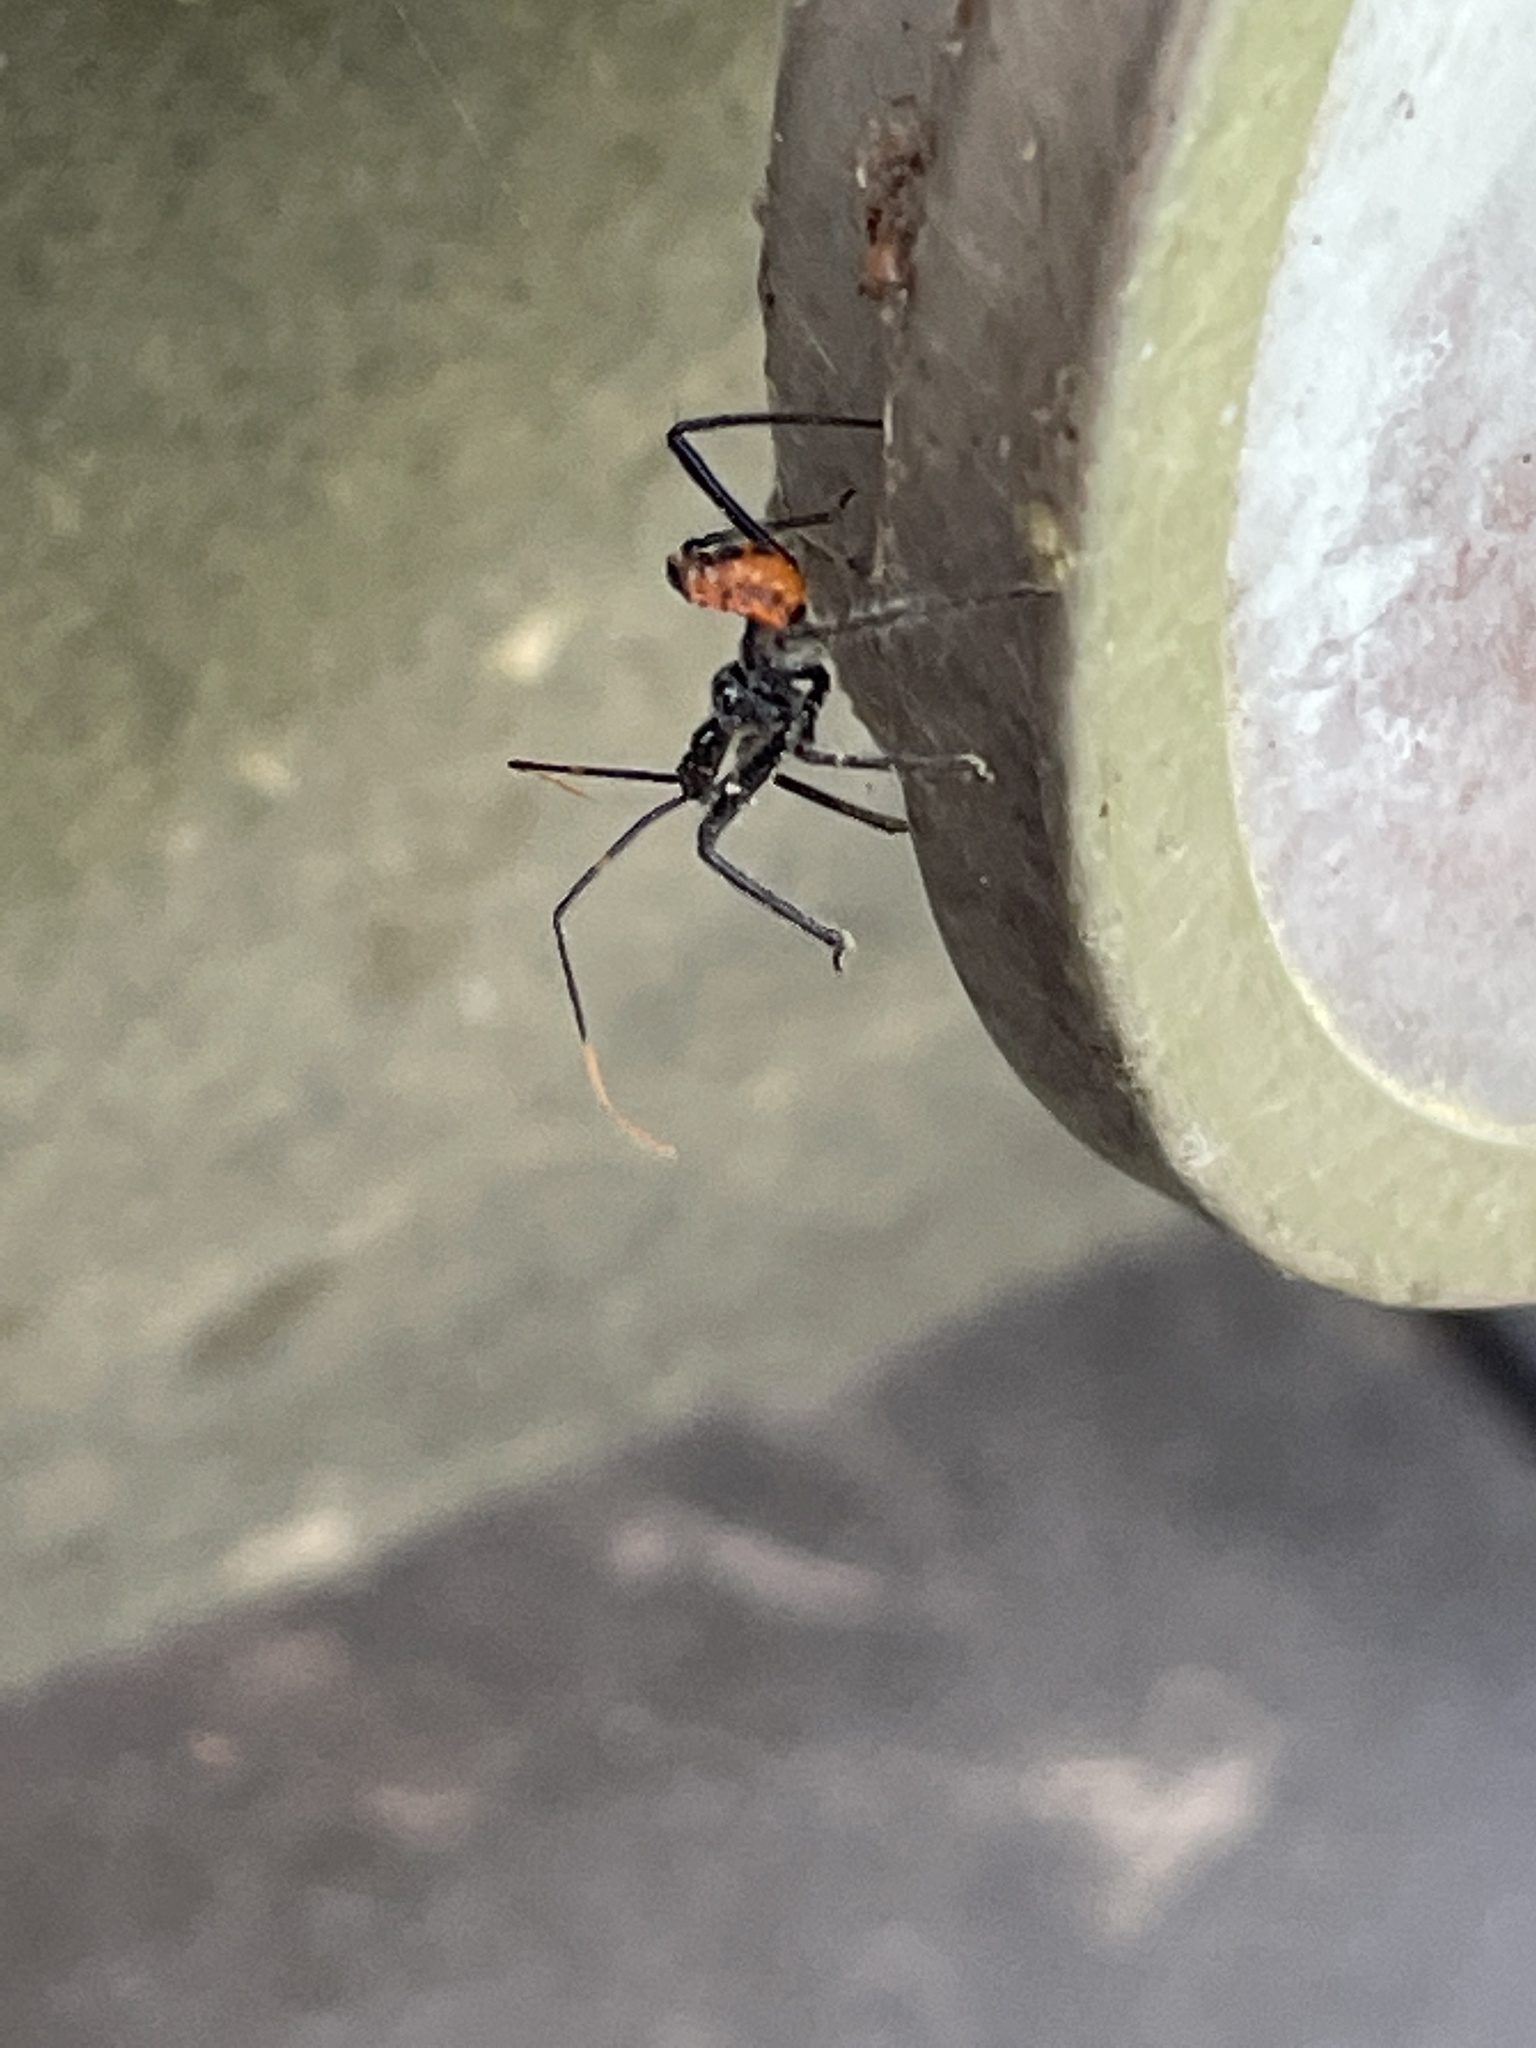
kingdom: Animalia
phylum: Arthropoda
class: Insecta
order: Hemiptera
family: Reduviidae
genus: Arilus
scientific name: Arilus cristatus
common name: North american wheel bug
